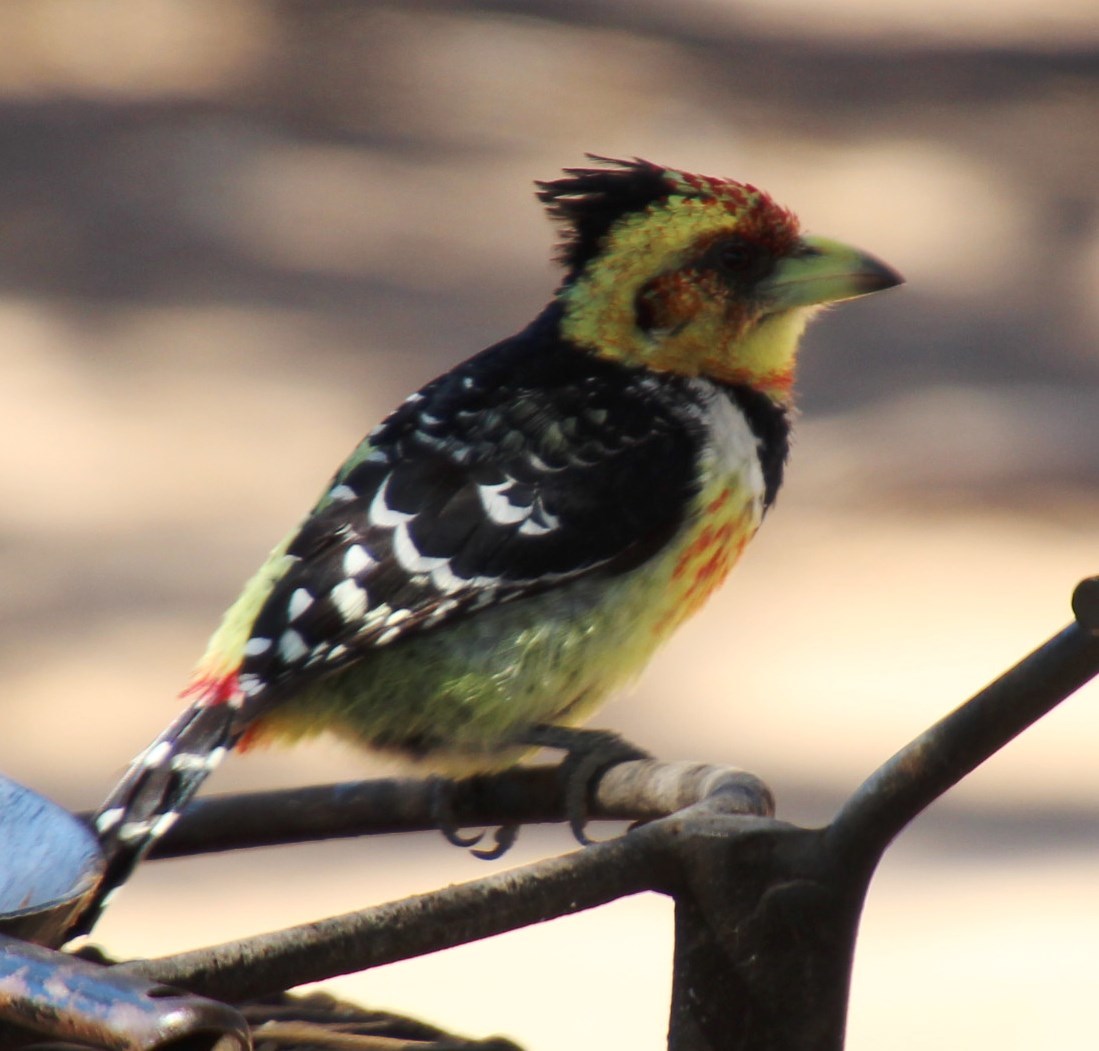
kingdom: Animalia
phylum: Chordata
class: Aves
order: Piciformes
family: Lybiidae
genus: Trachyphonus
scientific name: Trachyphonus vaillantii
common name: Crested barbet
